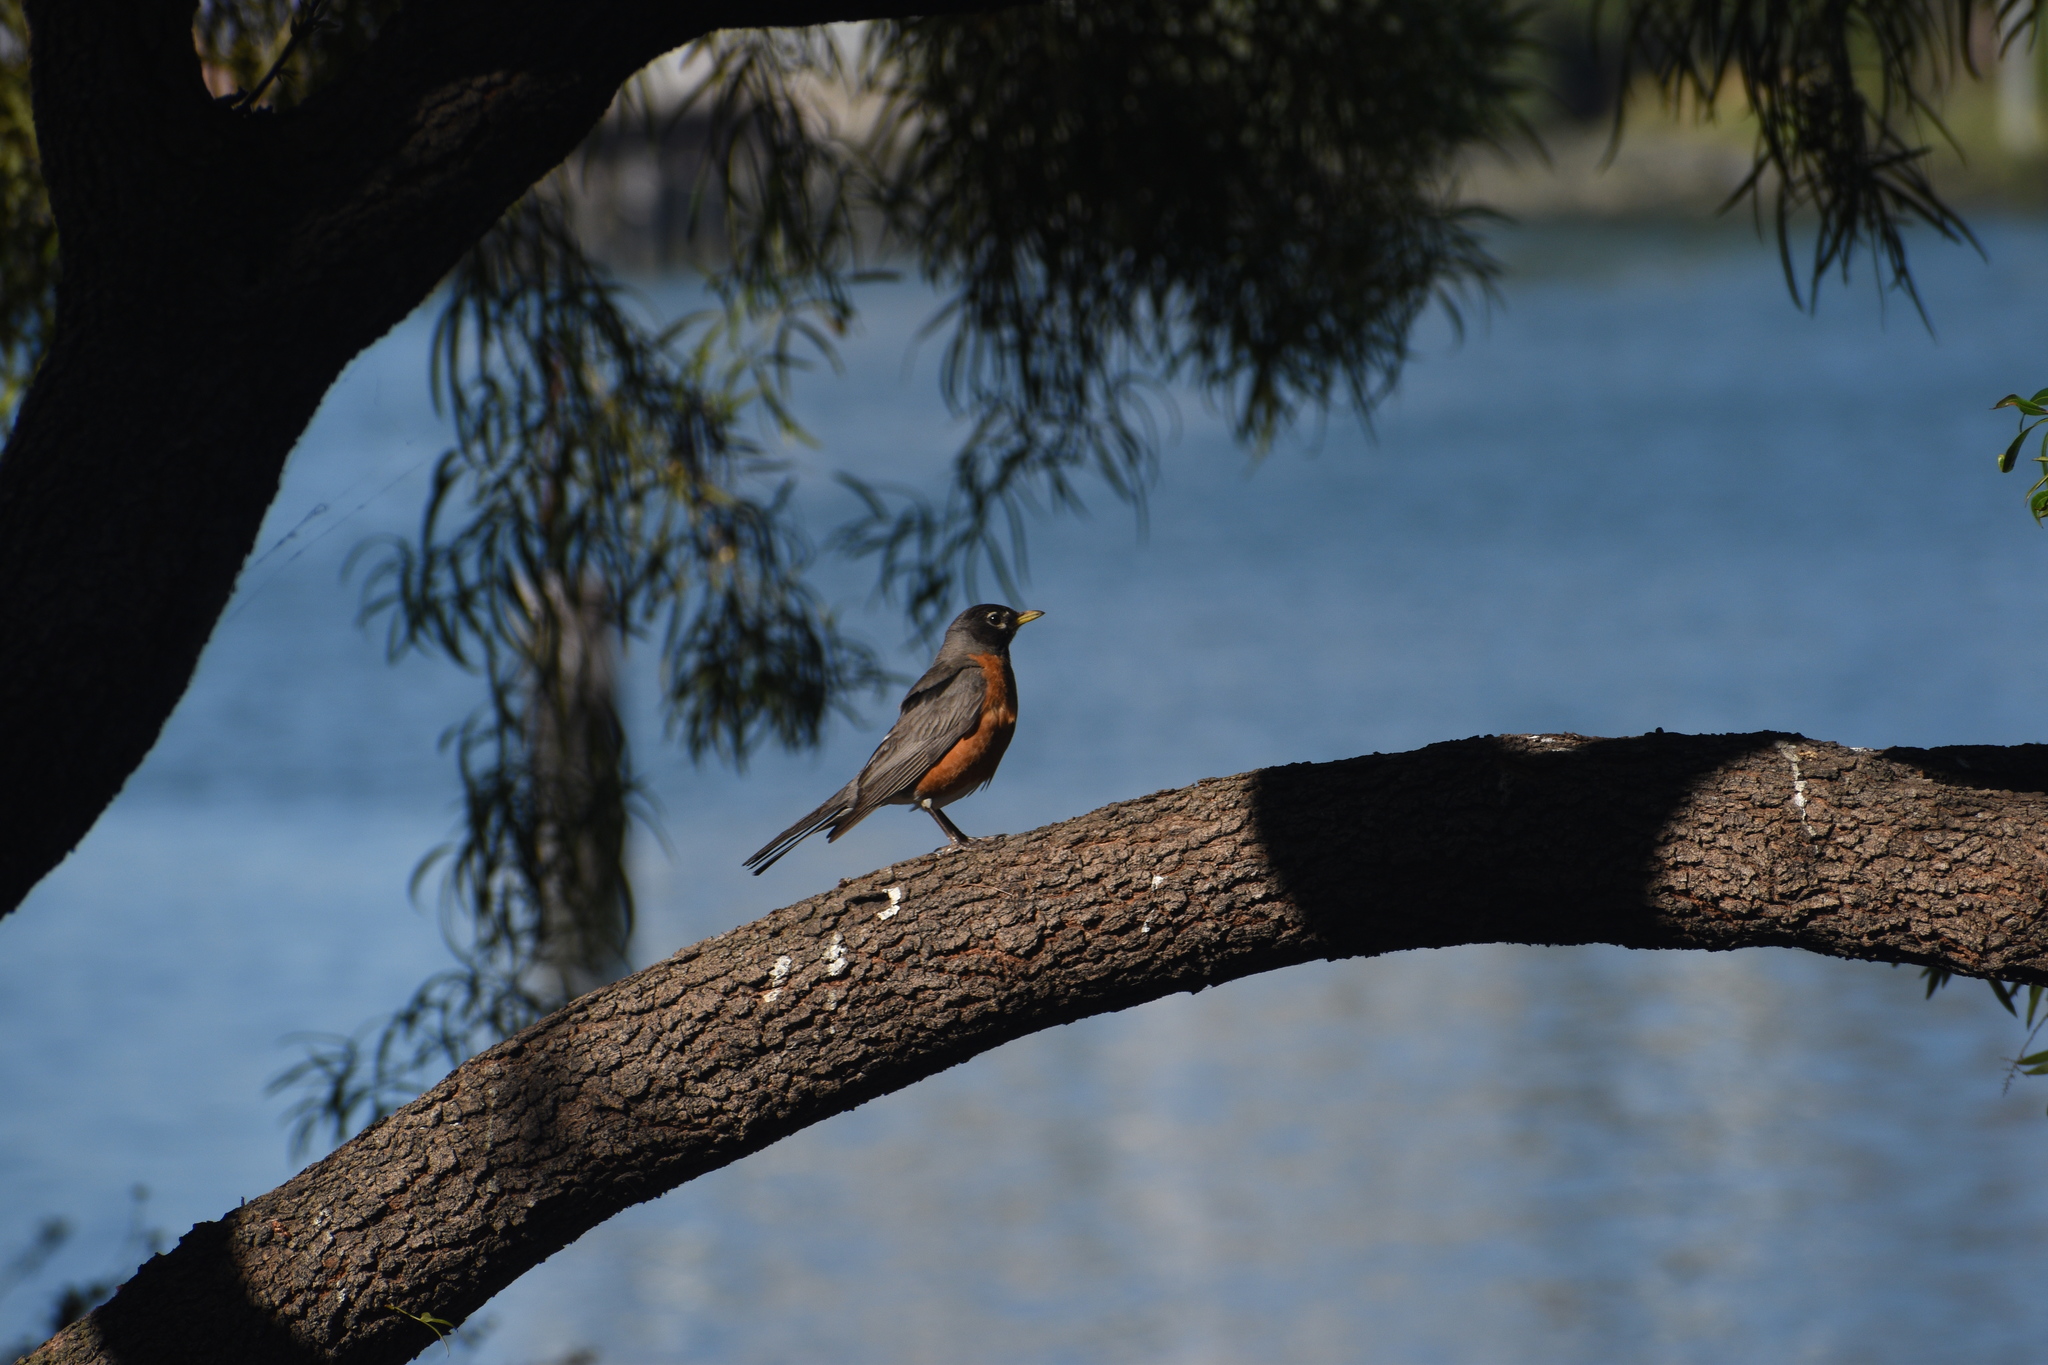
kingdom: Animalia
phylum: Chordata
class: Aves
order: Passeriformes
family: Turdidae
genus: Turdus
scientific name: Turdus migratorius
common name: American robin
